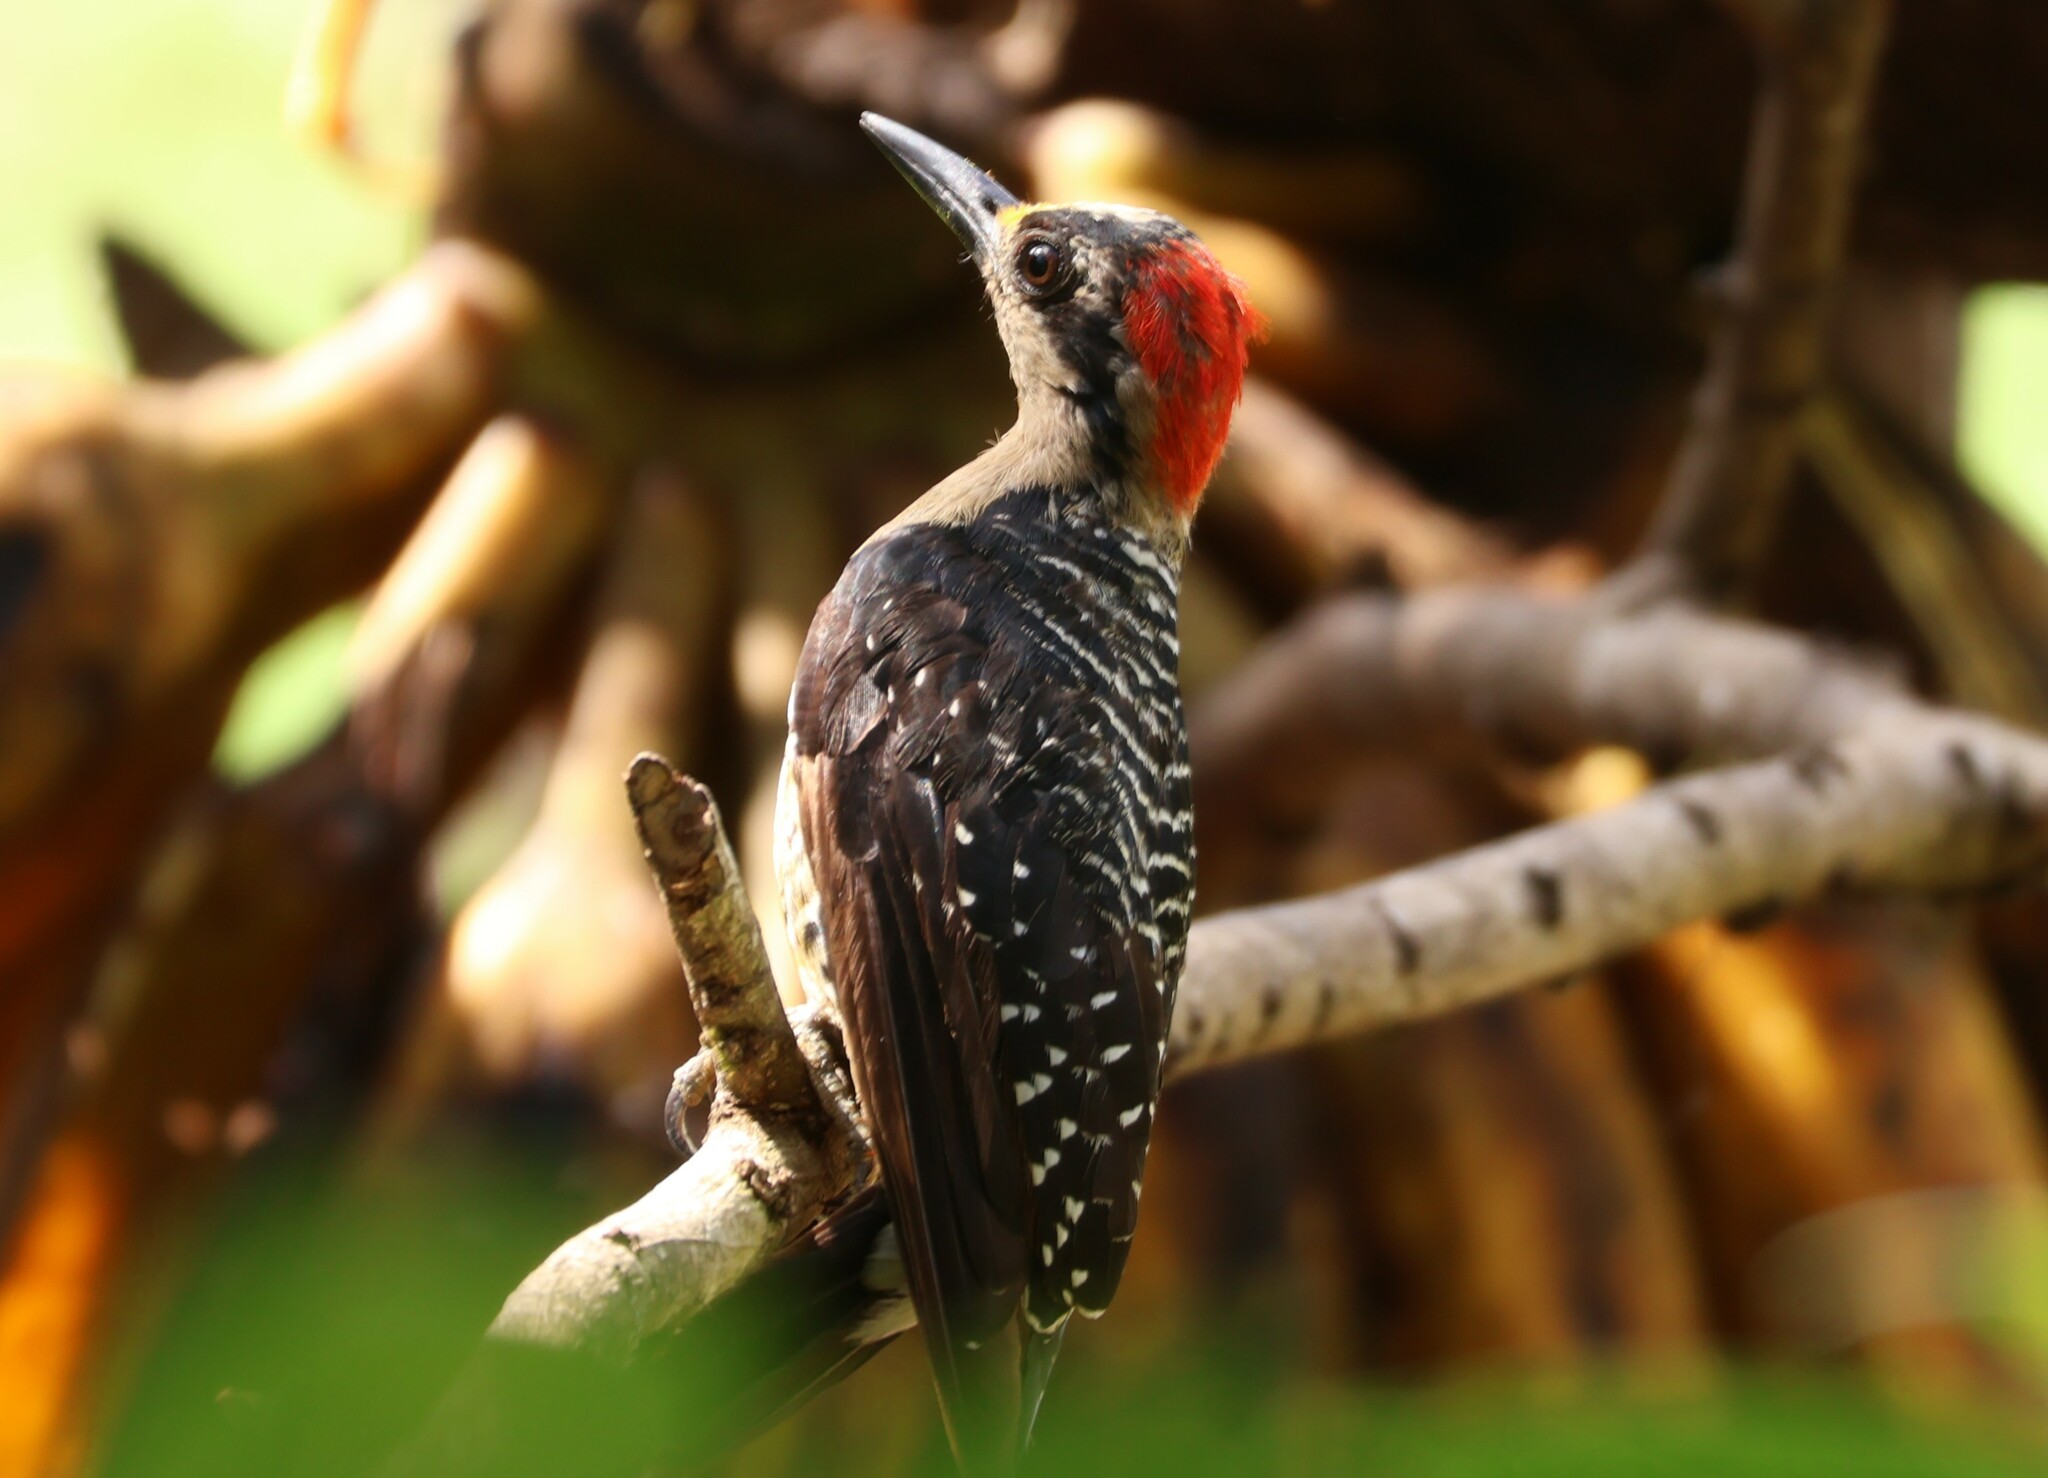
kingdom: Animalia
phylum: Chordata
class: Aves
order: Piciformes
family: Picidae
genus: Melanerpes
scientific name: Melanerpes pucherani
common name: Black-cheeked woodpecker
